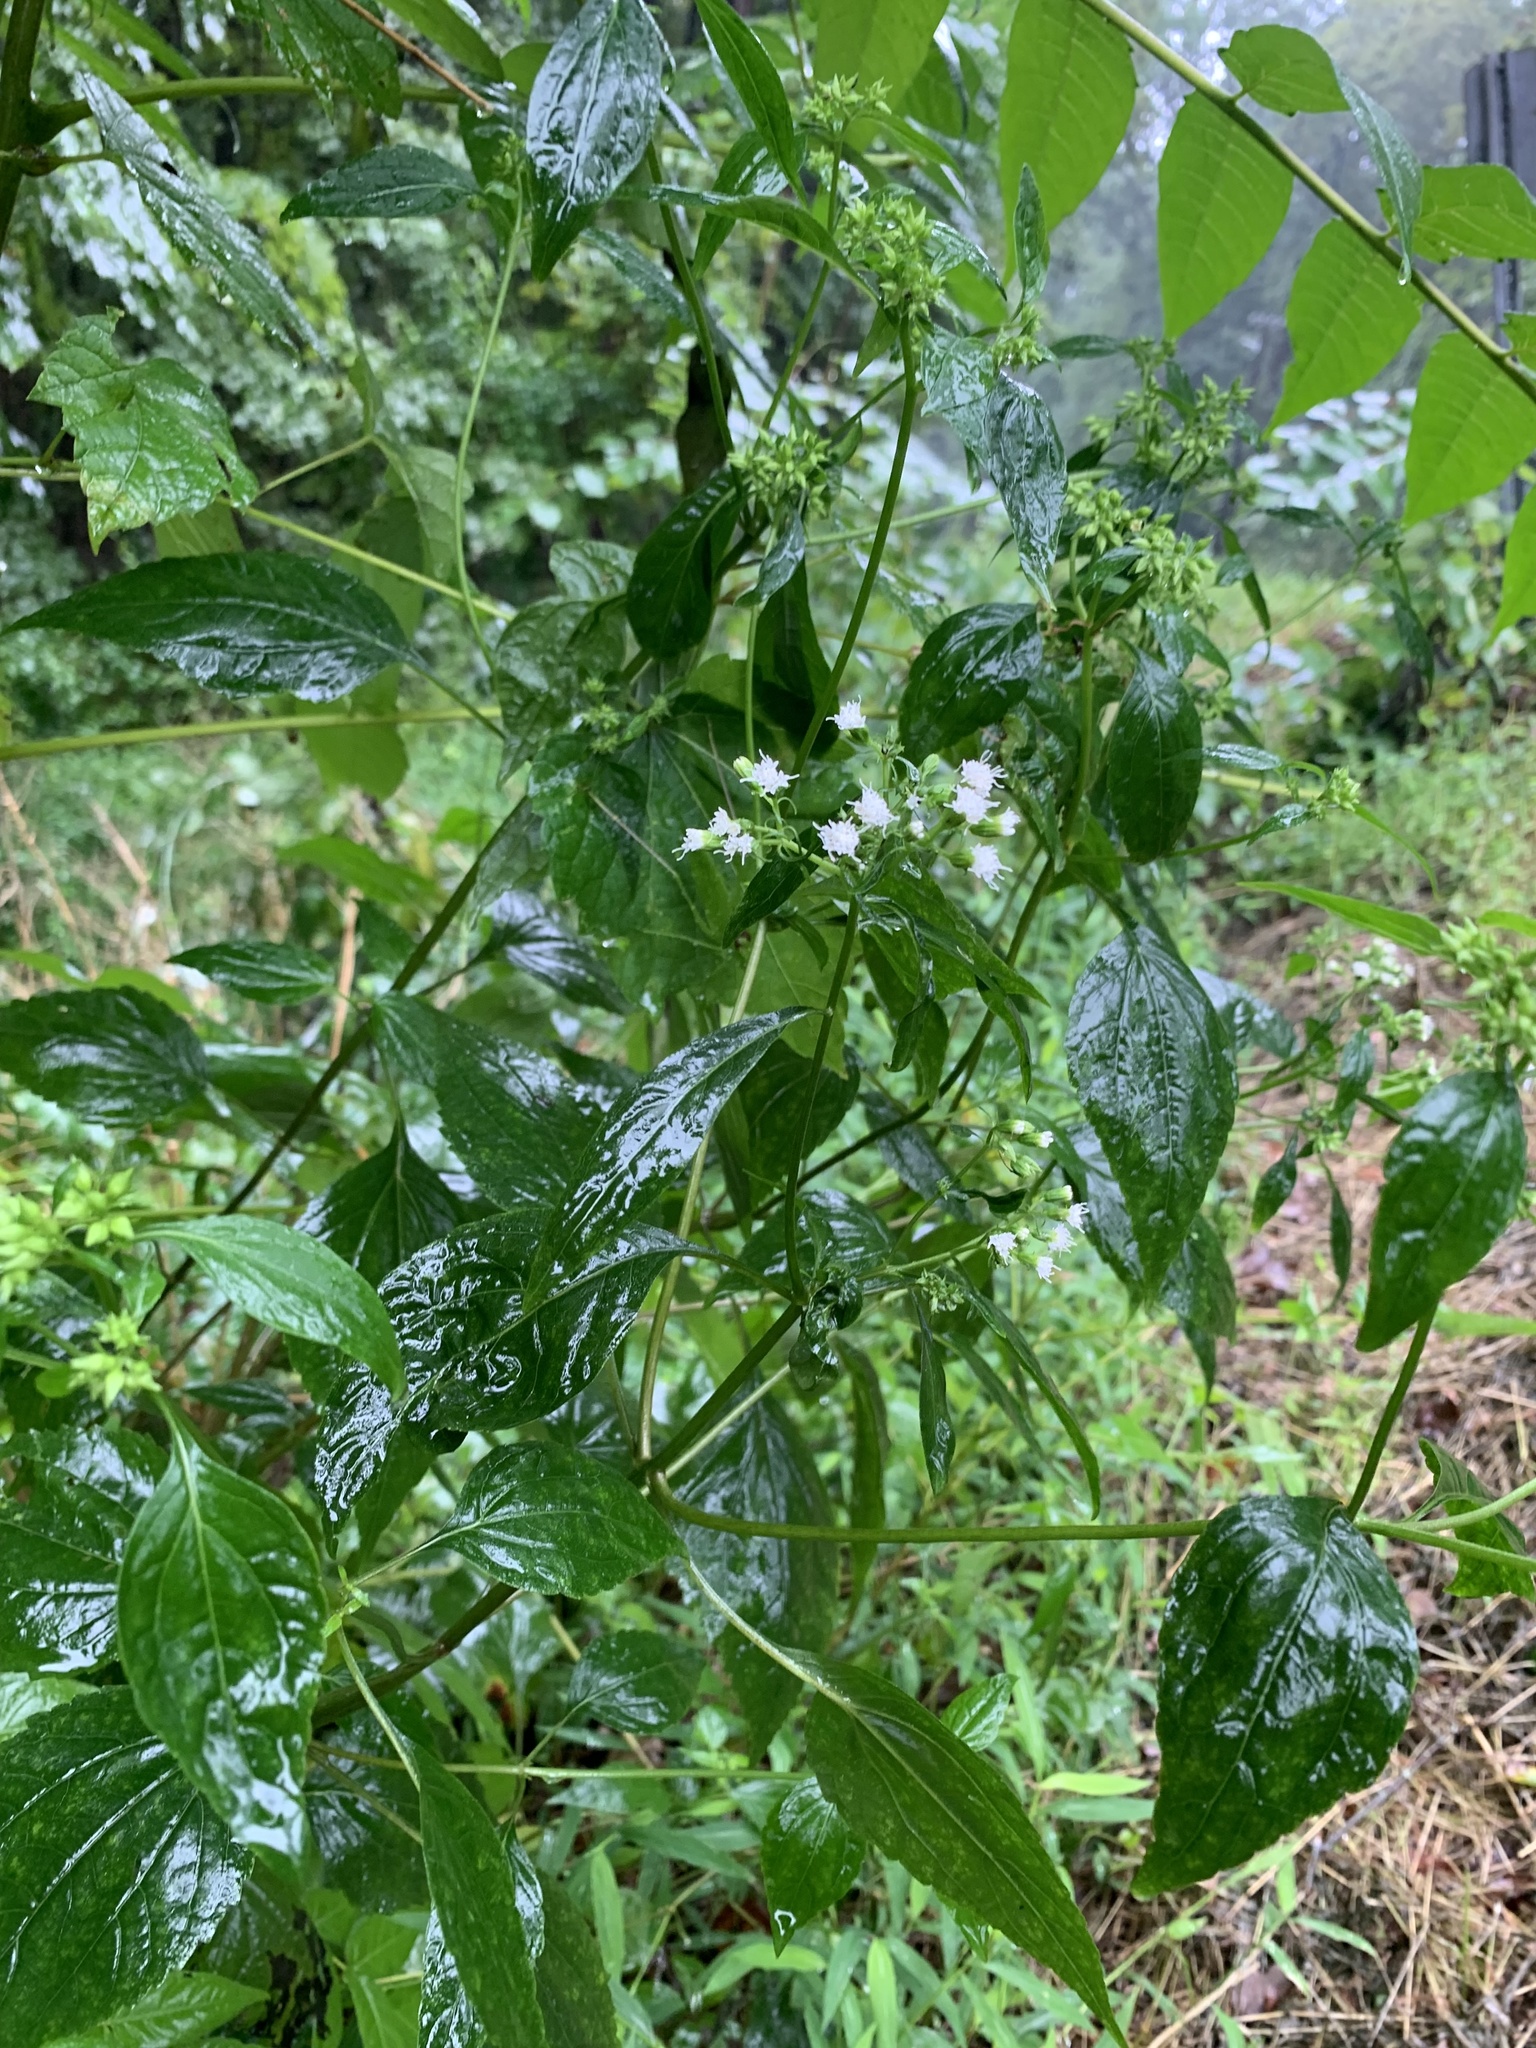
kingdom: Plantae
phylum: Tracheophyta
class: Magnoliopsida
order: Asterales
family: Asteraceae
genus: Ageratina
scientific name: Ageratina altissima
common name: White snakeroot
